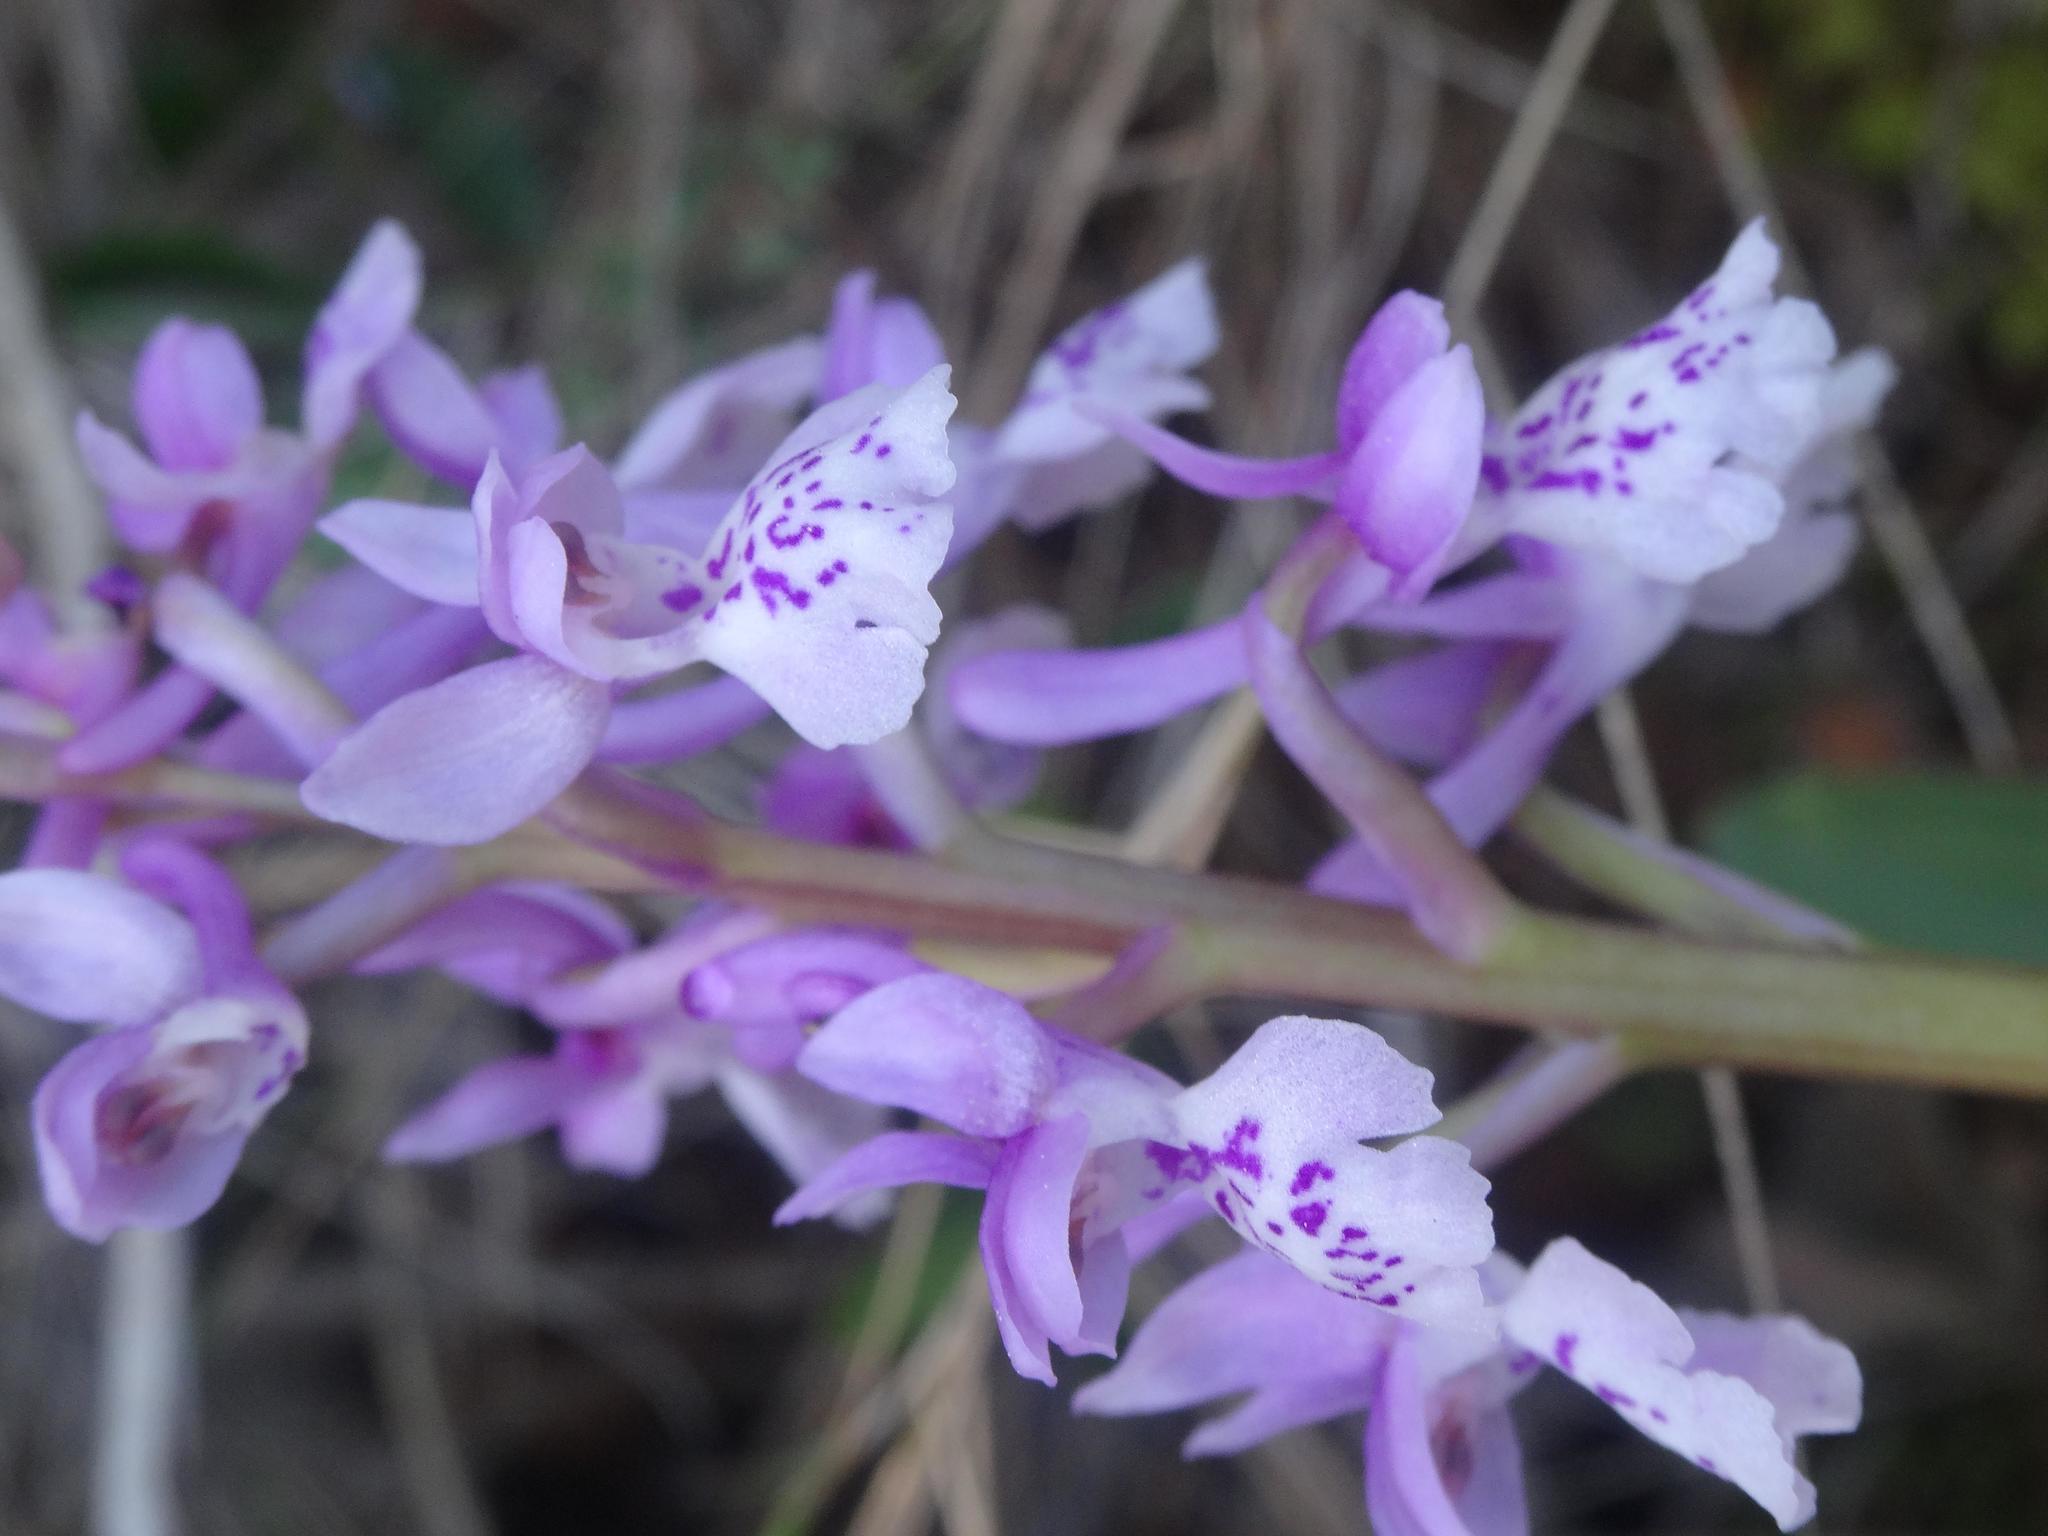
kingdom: Plantae
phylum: Tracheophyta
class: Liliopsida
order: Asparagales
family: Orchidaceae
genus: Orchis
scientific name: Orchis olbiensis
